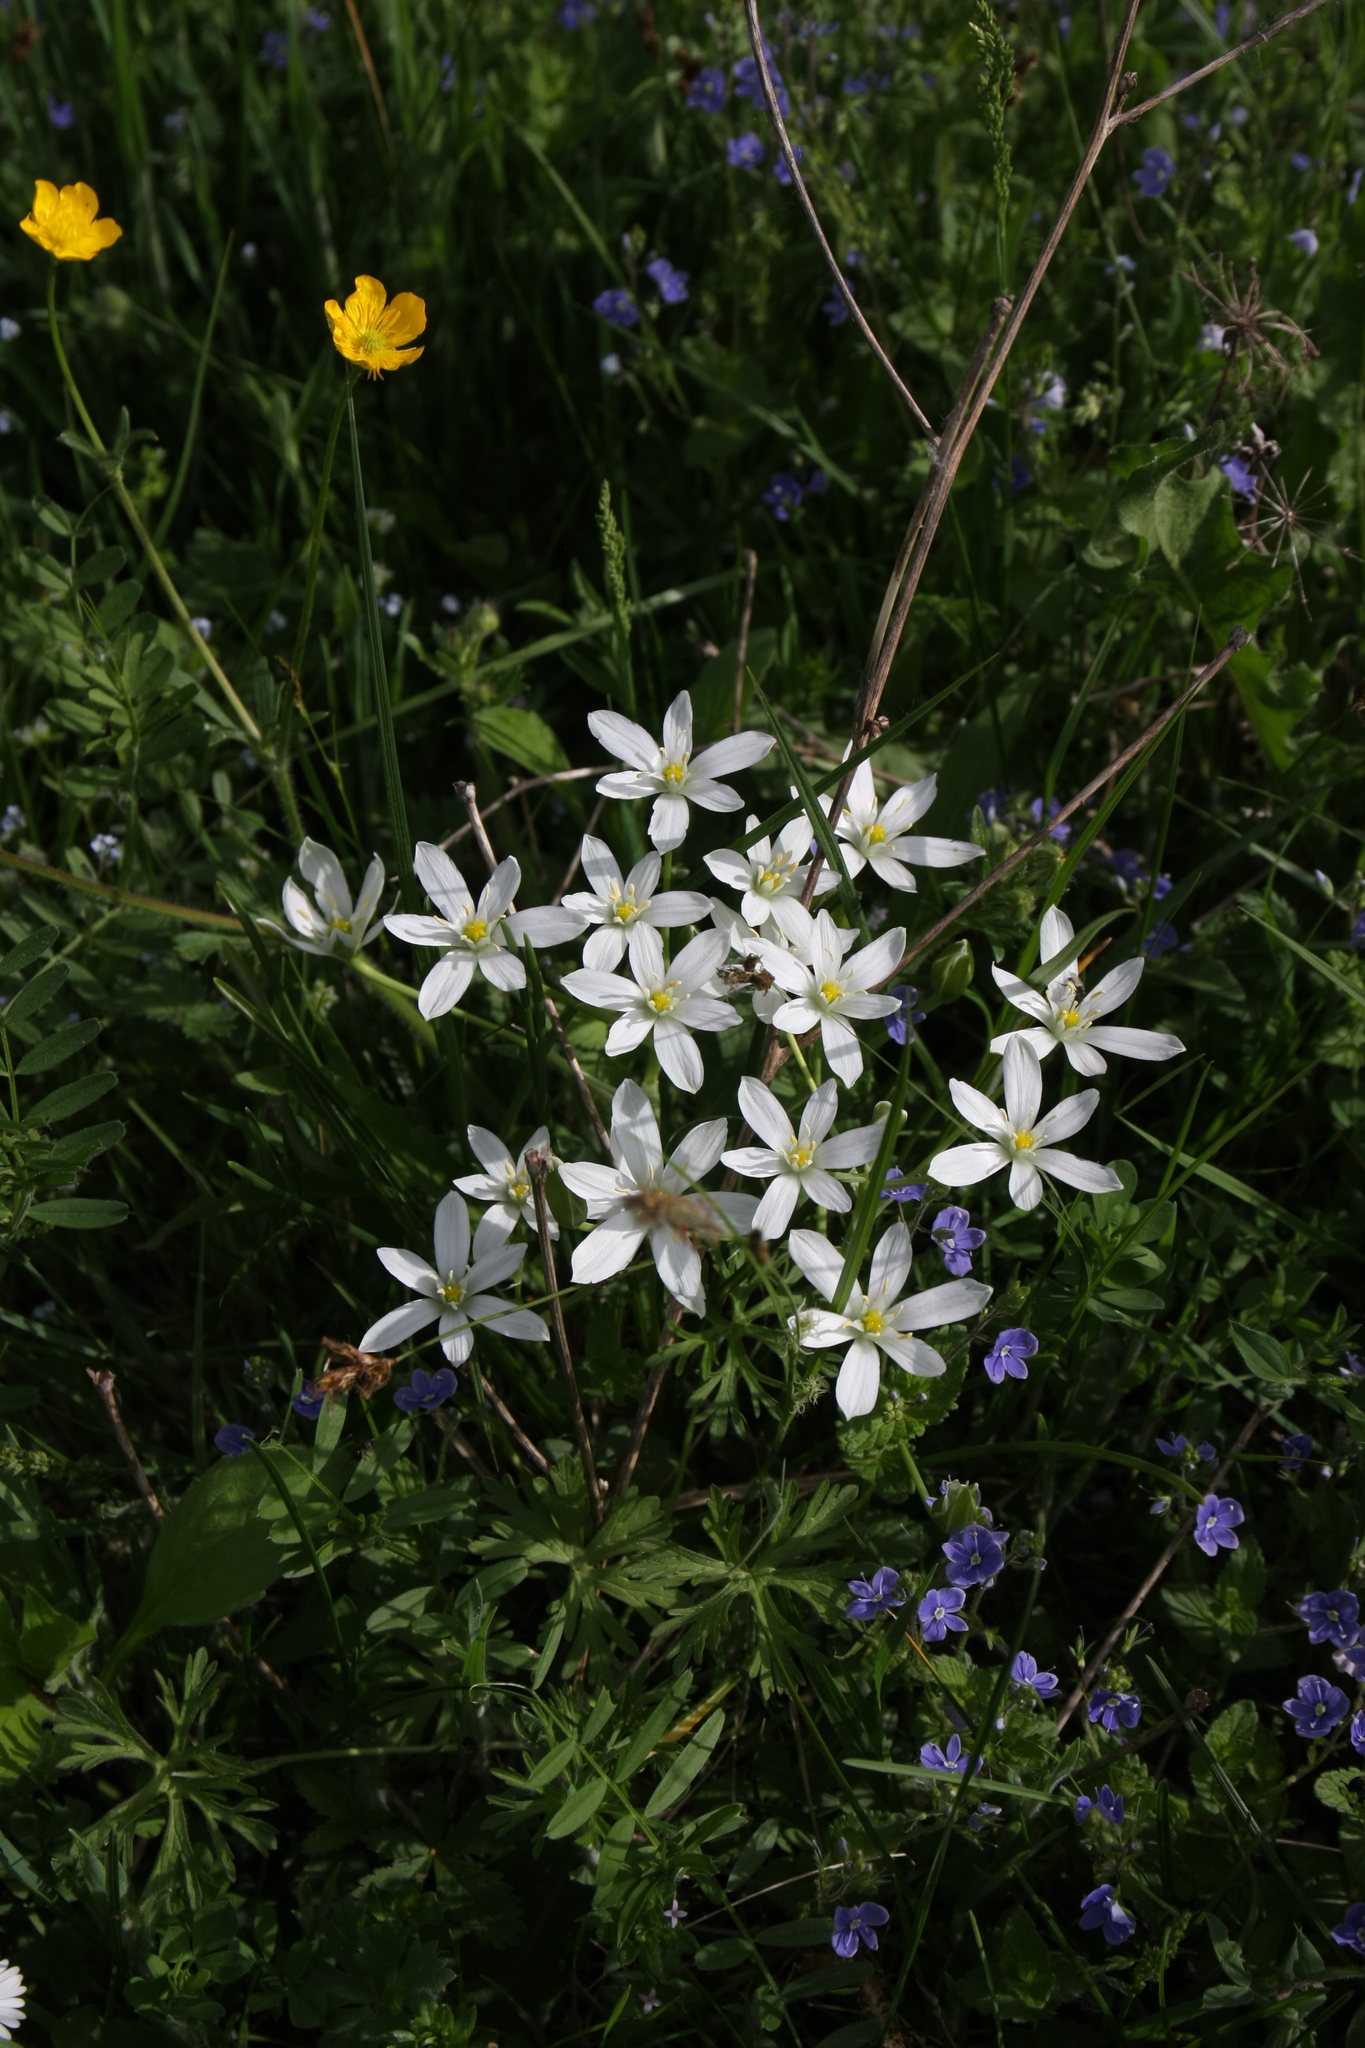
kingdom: Plantae
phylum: Tracheophyta
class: Liliopsida
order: Asparagales
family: Asparagaceae
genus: Ornithogalum
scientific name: Ornithogalum umbellatum
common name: Garden star-of-bethlehem
